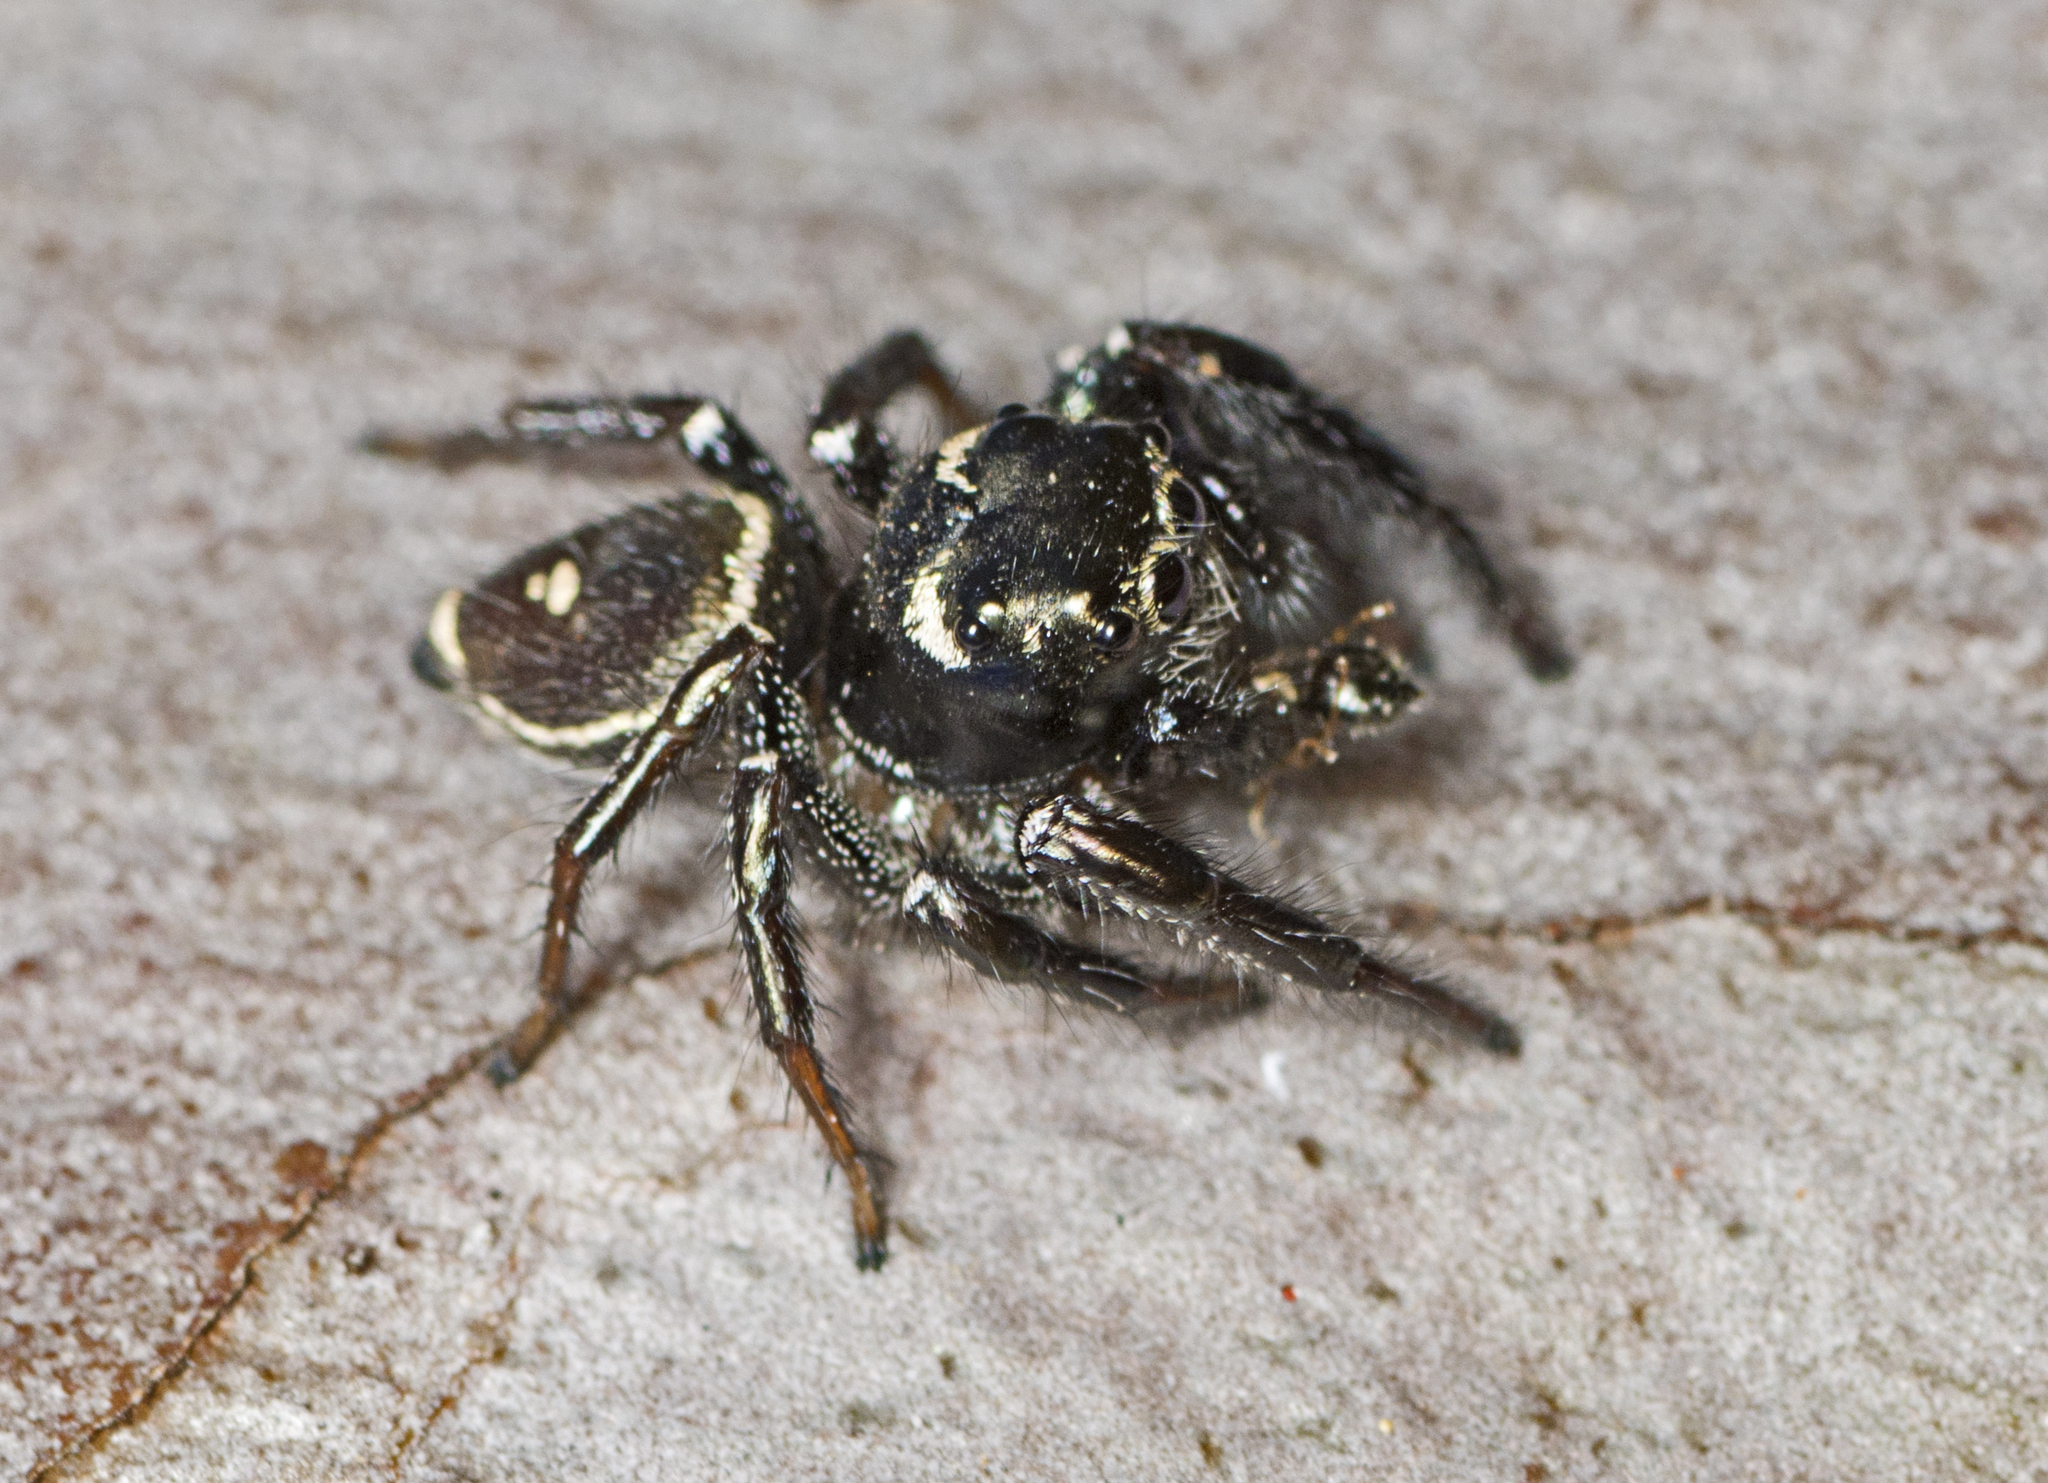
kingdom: Animalia
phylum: Arthropoda
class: Arachnida
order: Araneae
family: Salticidae
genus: Zenodorus
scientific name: Zenodorus orbiculatus
